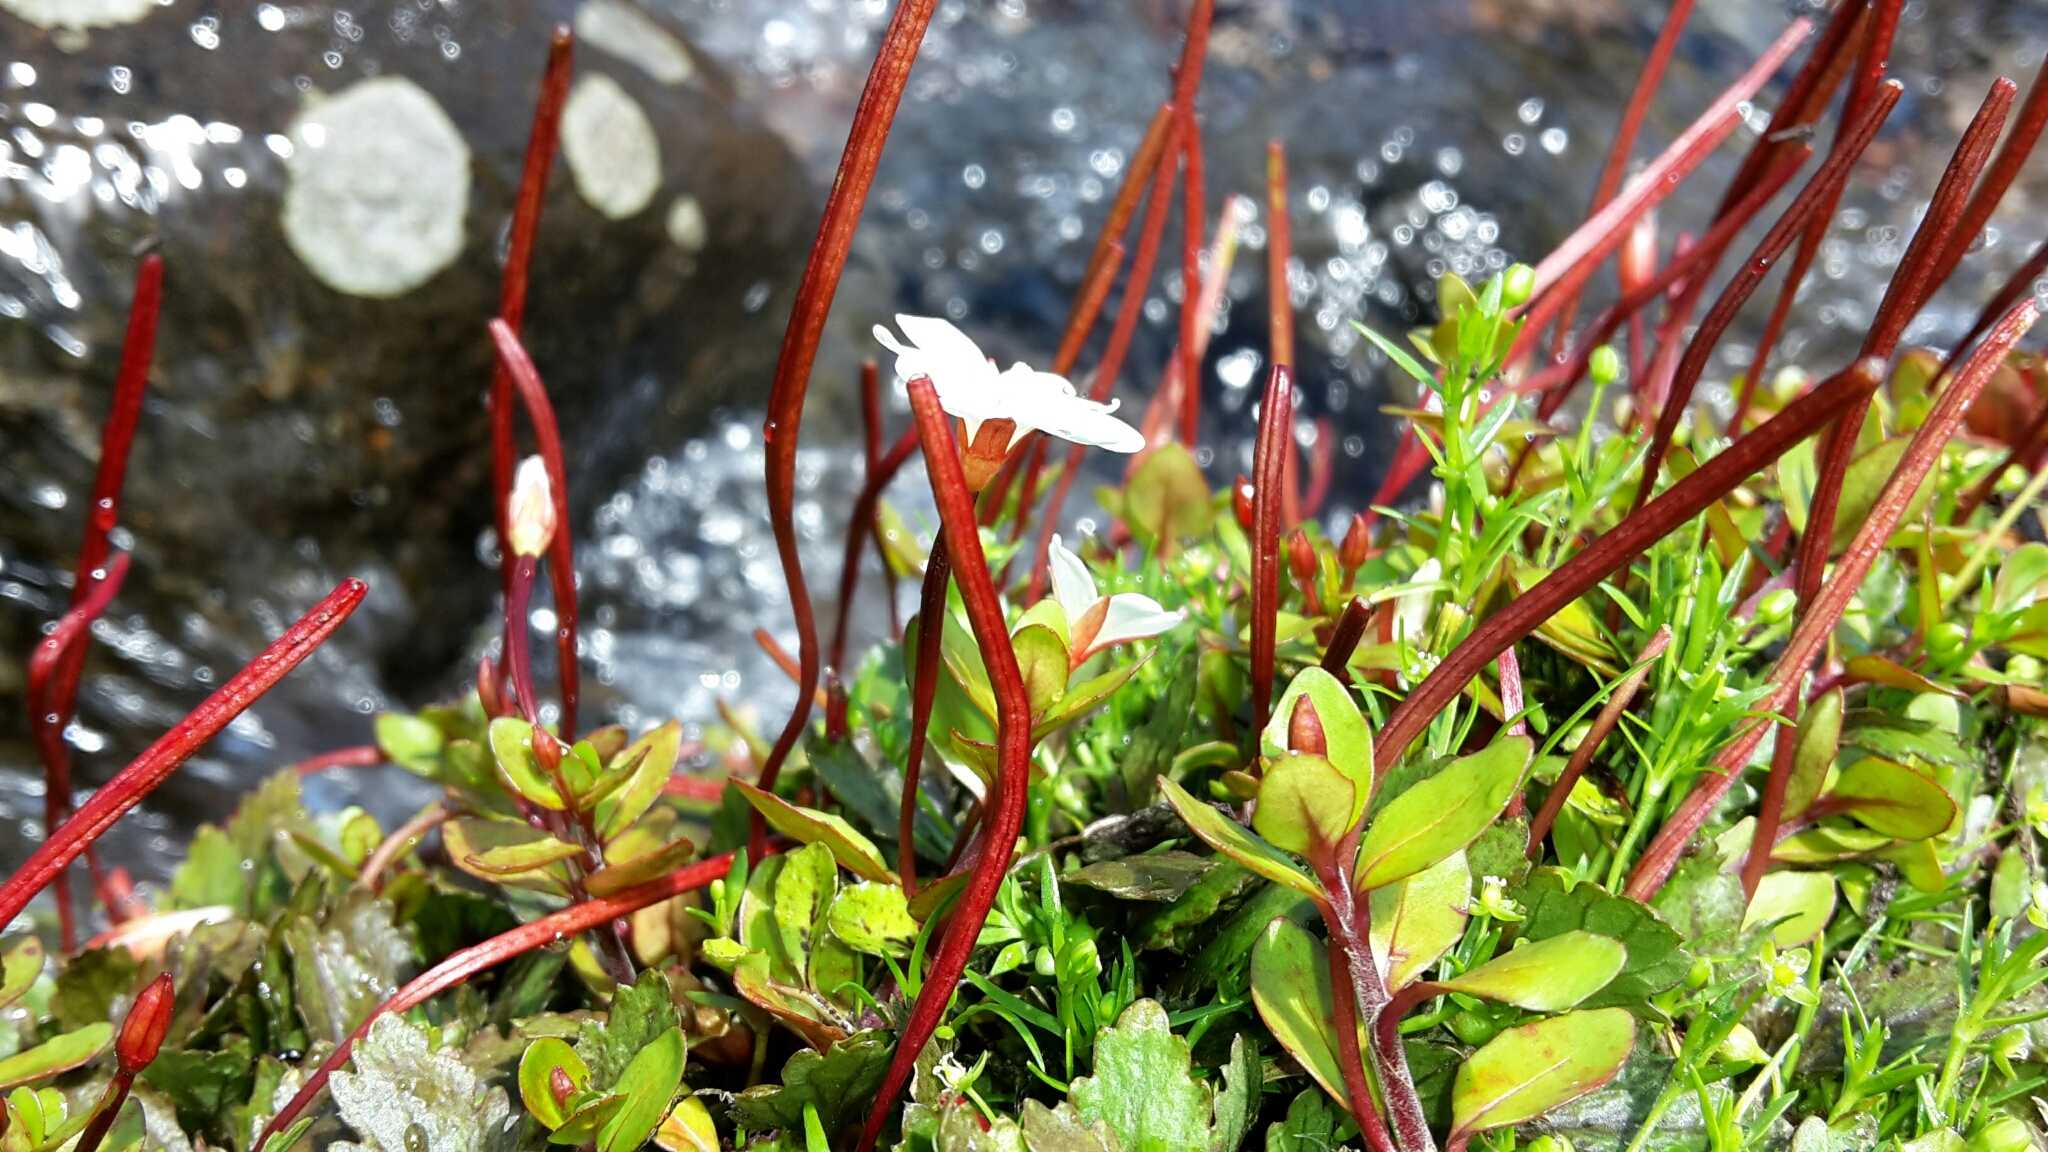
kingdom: Plantae
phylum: Tracheophyta
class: Magnoliopsida
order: Myrtales
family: Onagraceae
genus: Epilobium
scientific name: Epilobium macropus
